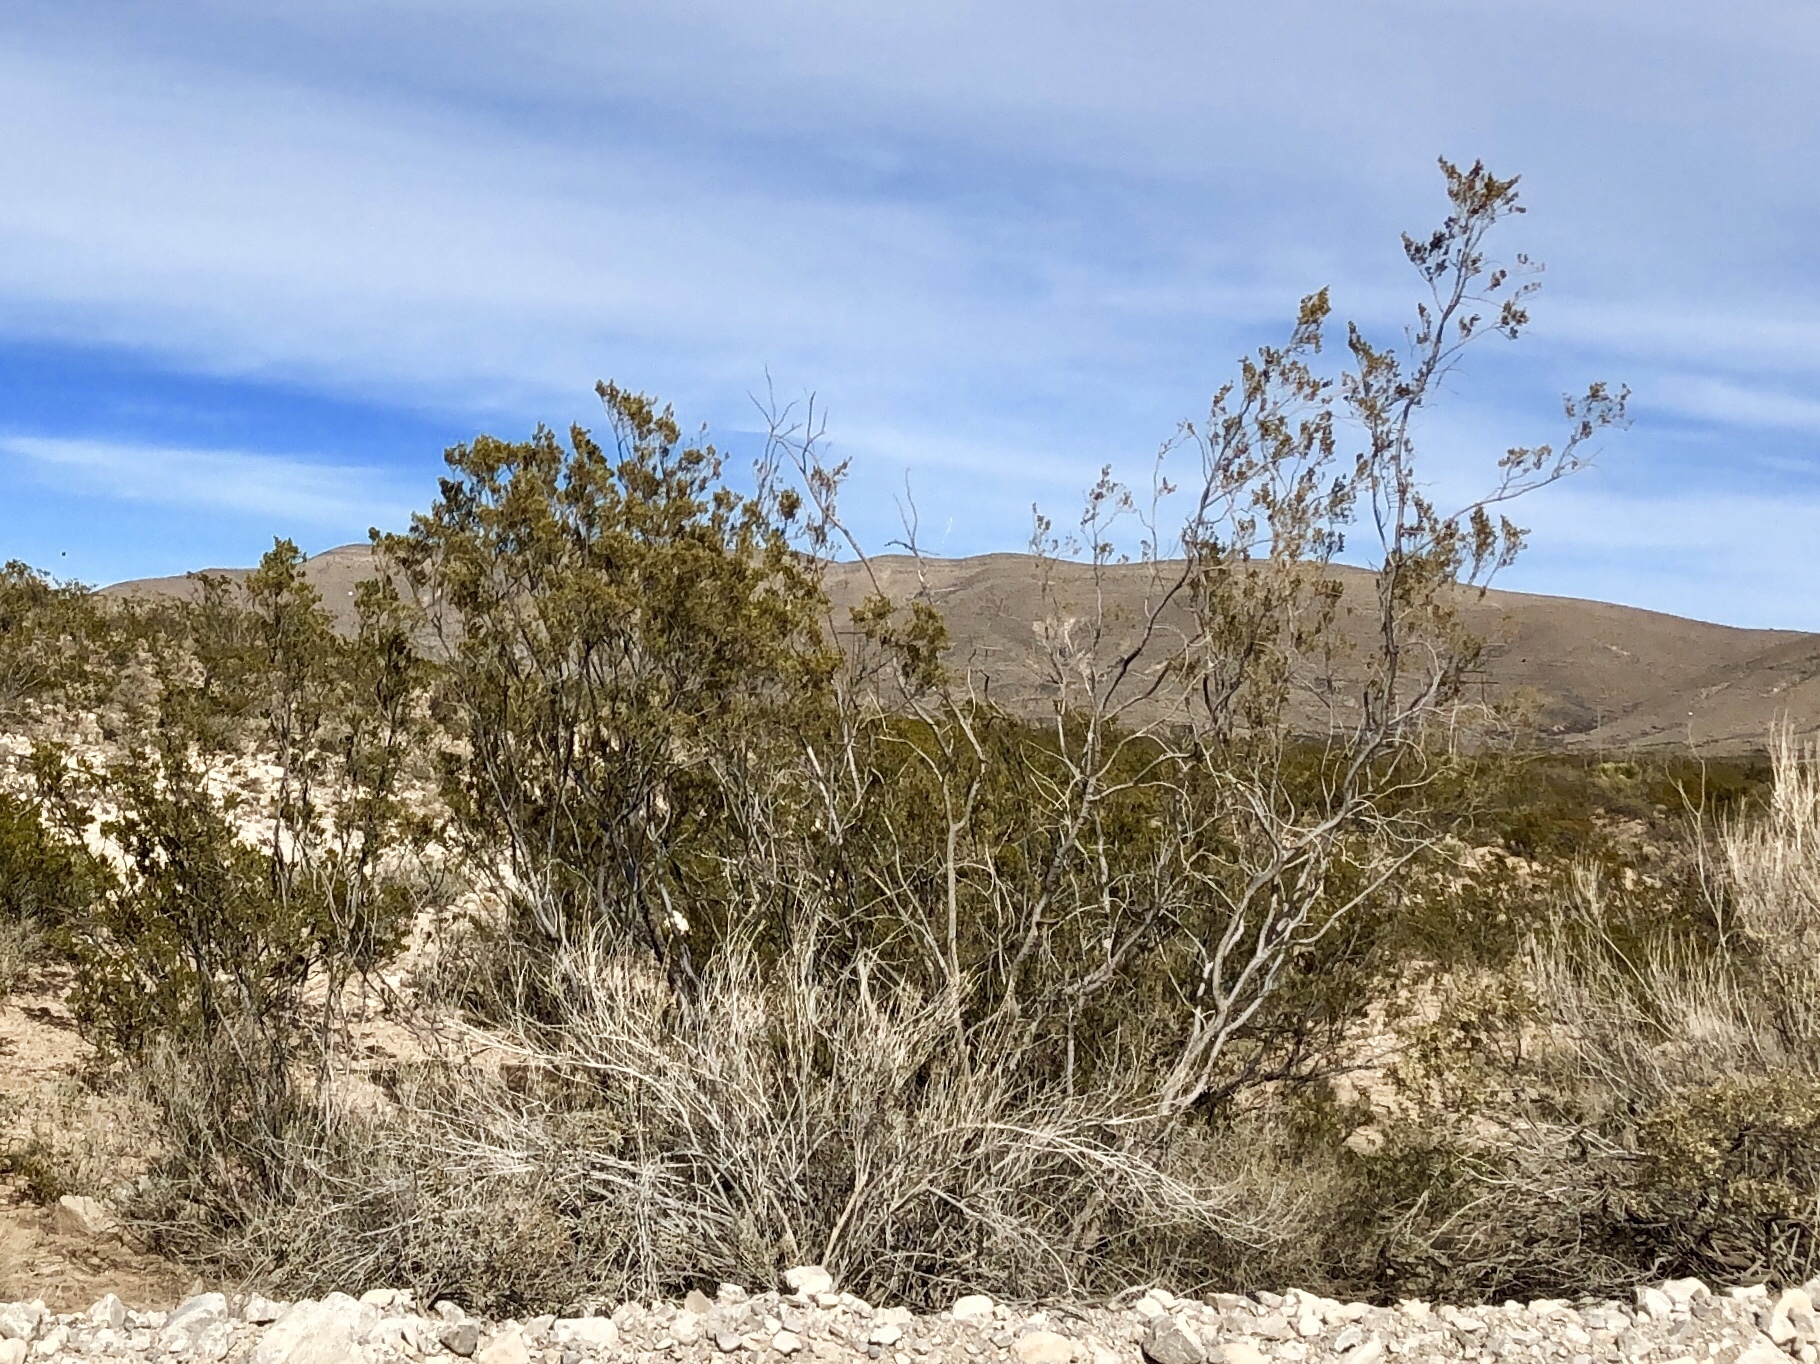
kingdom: Plantae
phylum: Tracheophyta
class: Magnoliopsida
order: Zygophyllales
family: Zygophyllaceae
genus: Larrea
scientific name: Larrea tridentata
